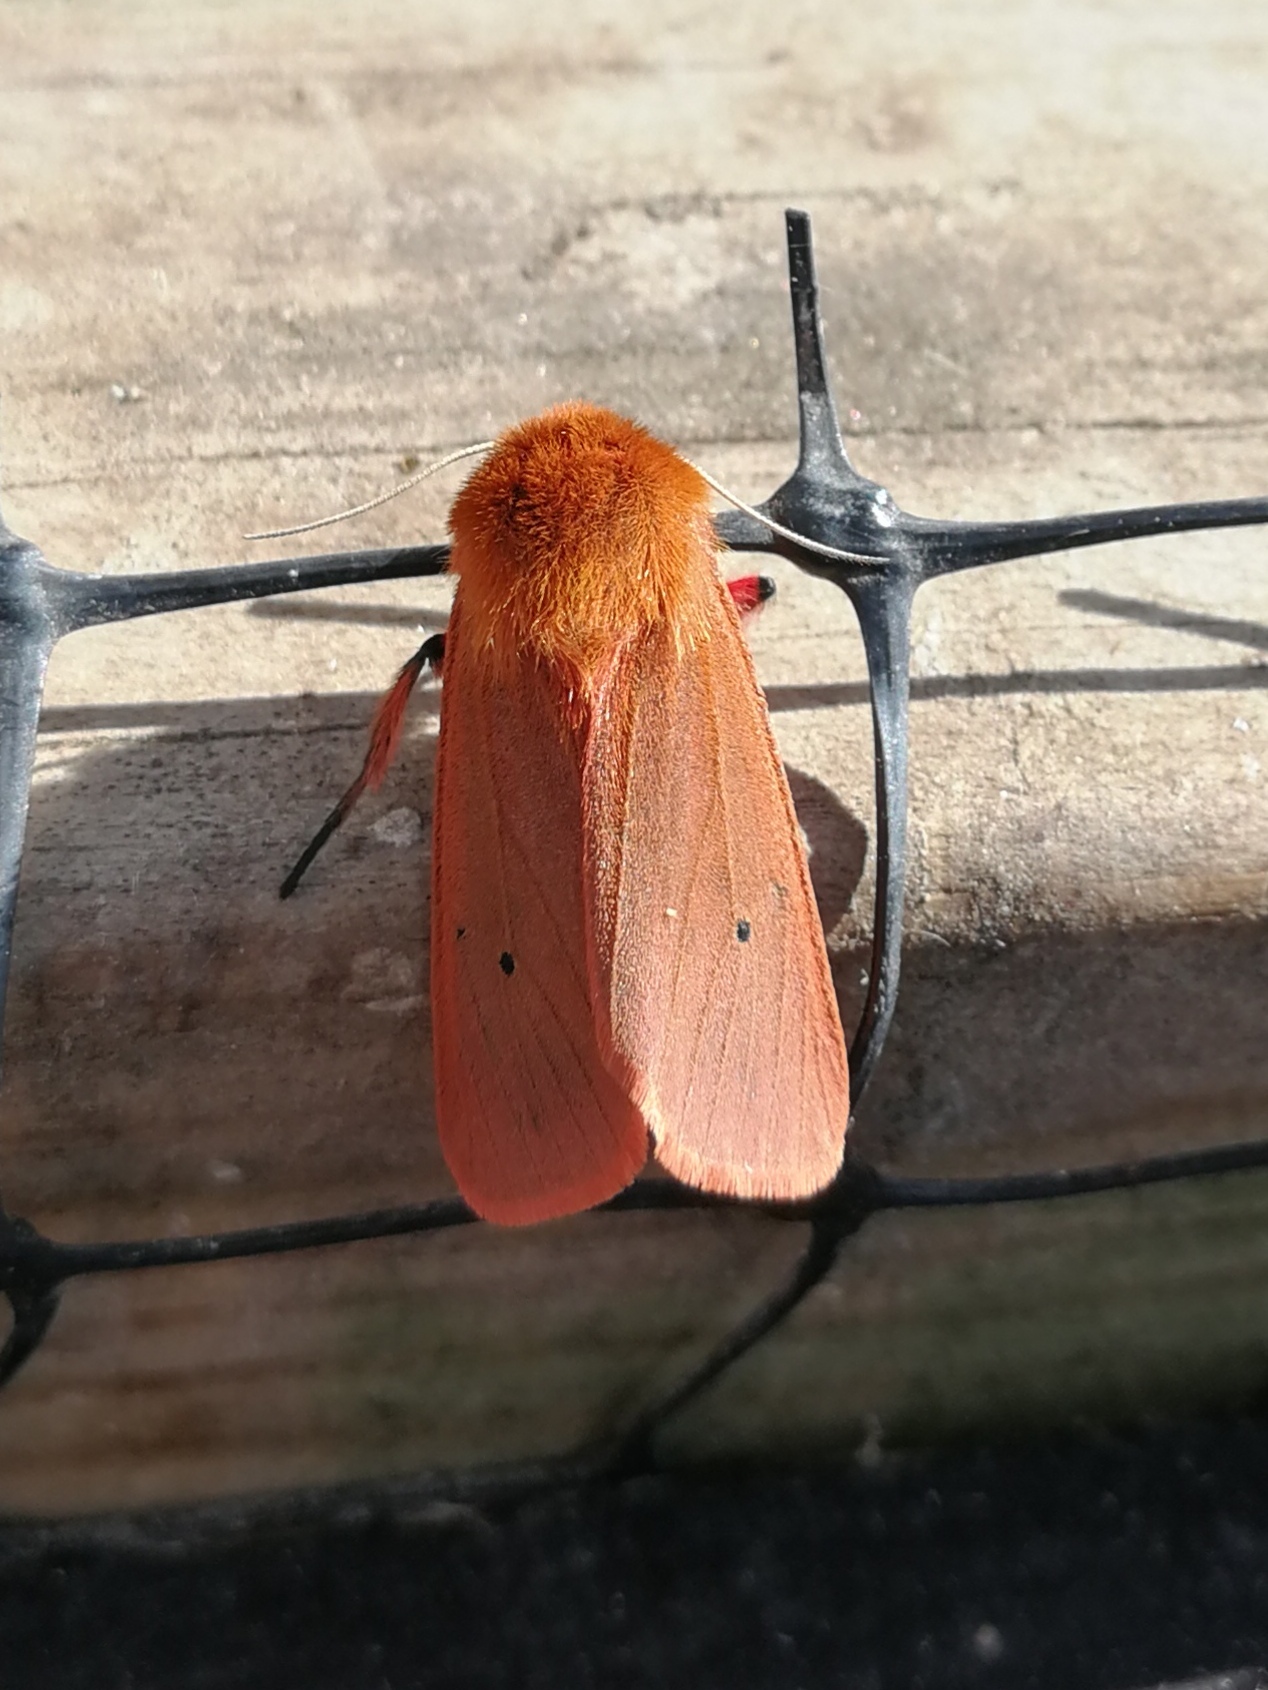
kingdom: Animalia
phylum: Arthropoda
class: Insecta
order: Lepidoptera
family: Erebidae
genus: Phragmatobia
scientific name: Phragmatobia fuliginosa
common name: Ruby tiger
